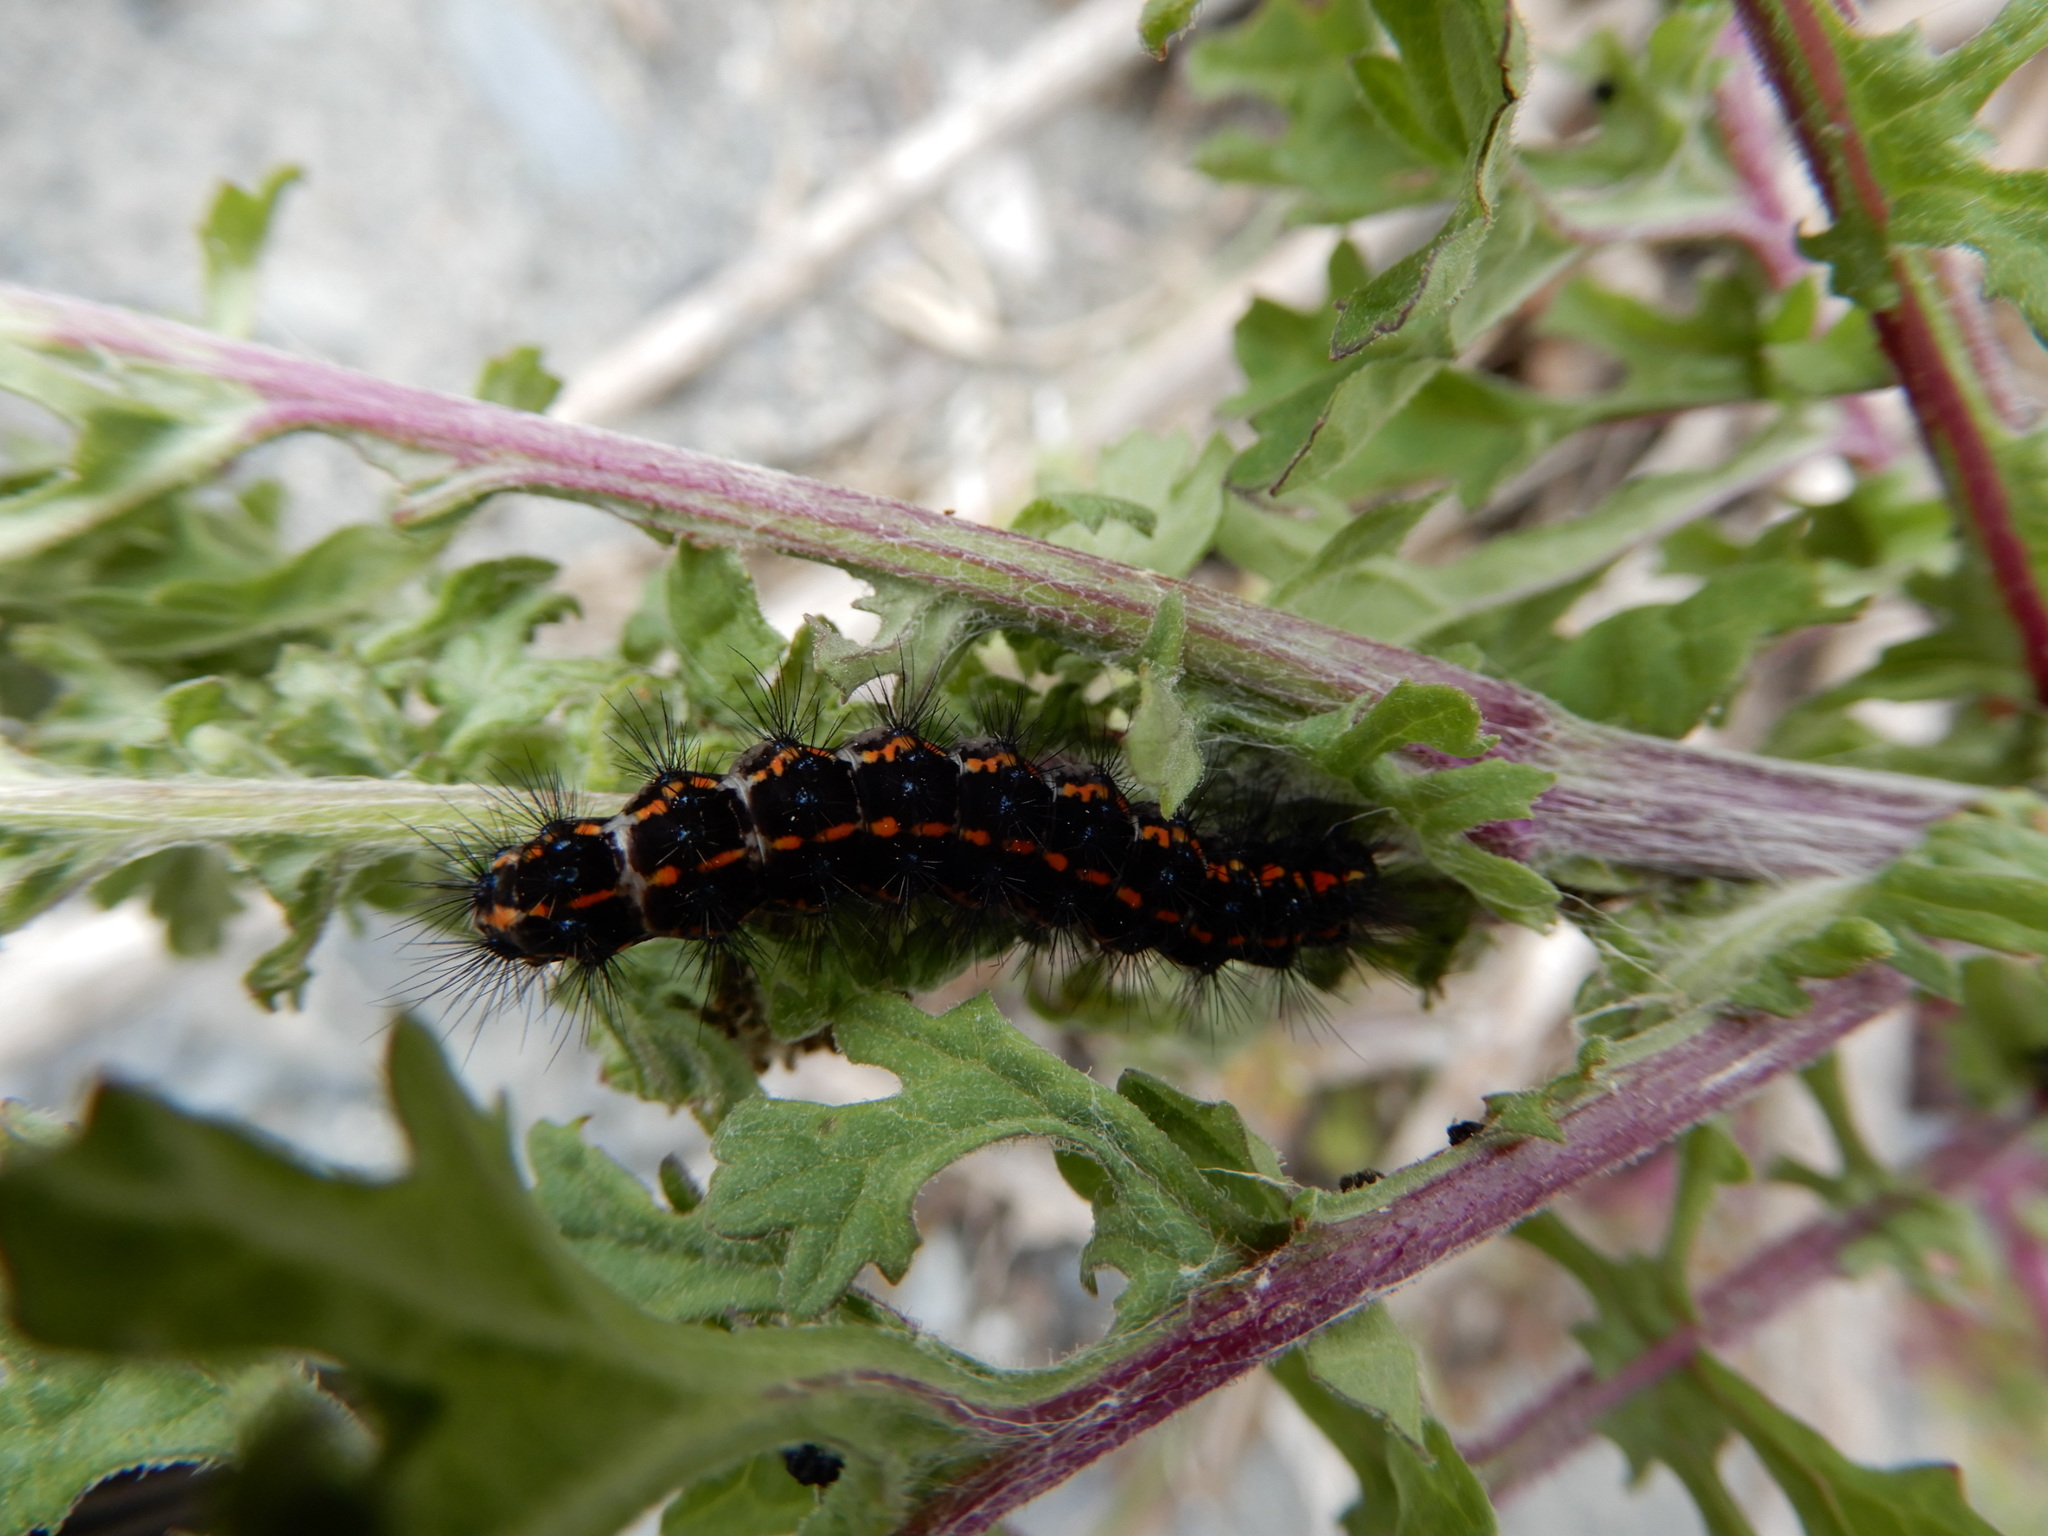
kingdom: Animalia
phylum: Arthropoda
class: Insecta
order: Lepidoptera
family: Erebidae
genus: Nyctemera
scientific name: Nyctemera annulatum
